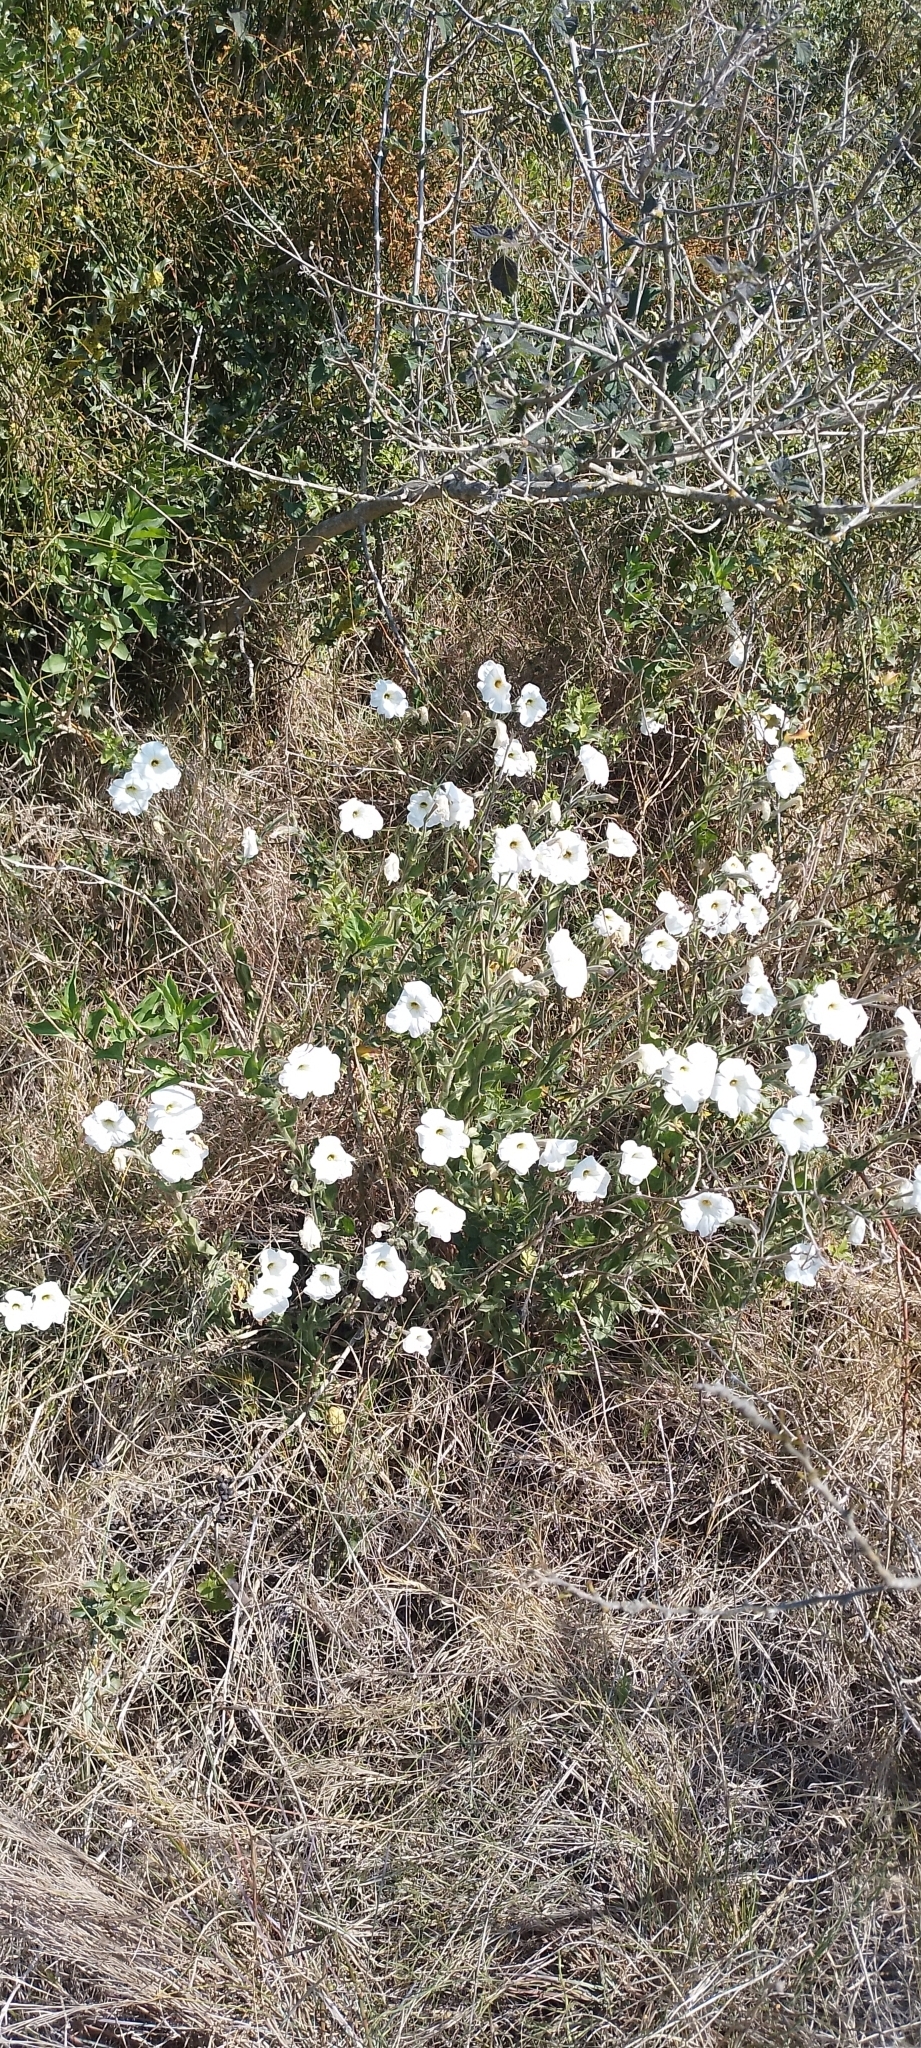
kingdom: Plantae
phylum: Tracheophyta
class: Magnoliopsida
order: Solanales
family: Solanaceae
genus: Petunia
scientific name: Petunia axillaris
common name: Large white petunia
